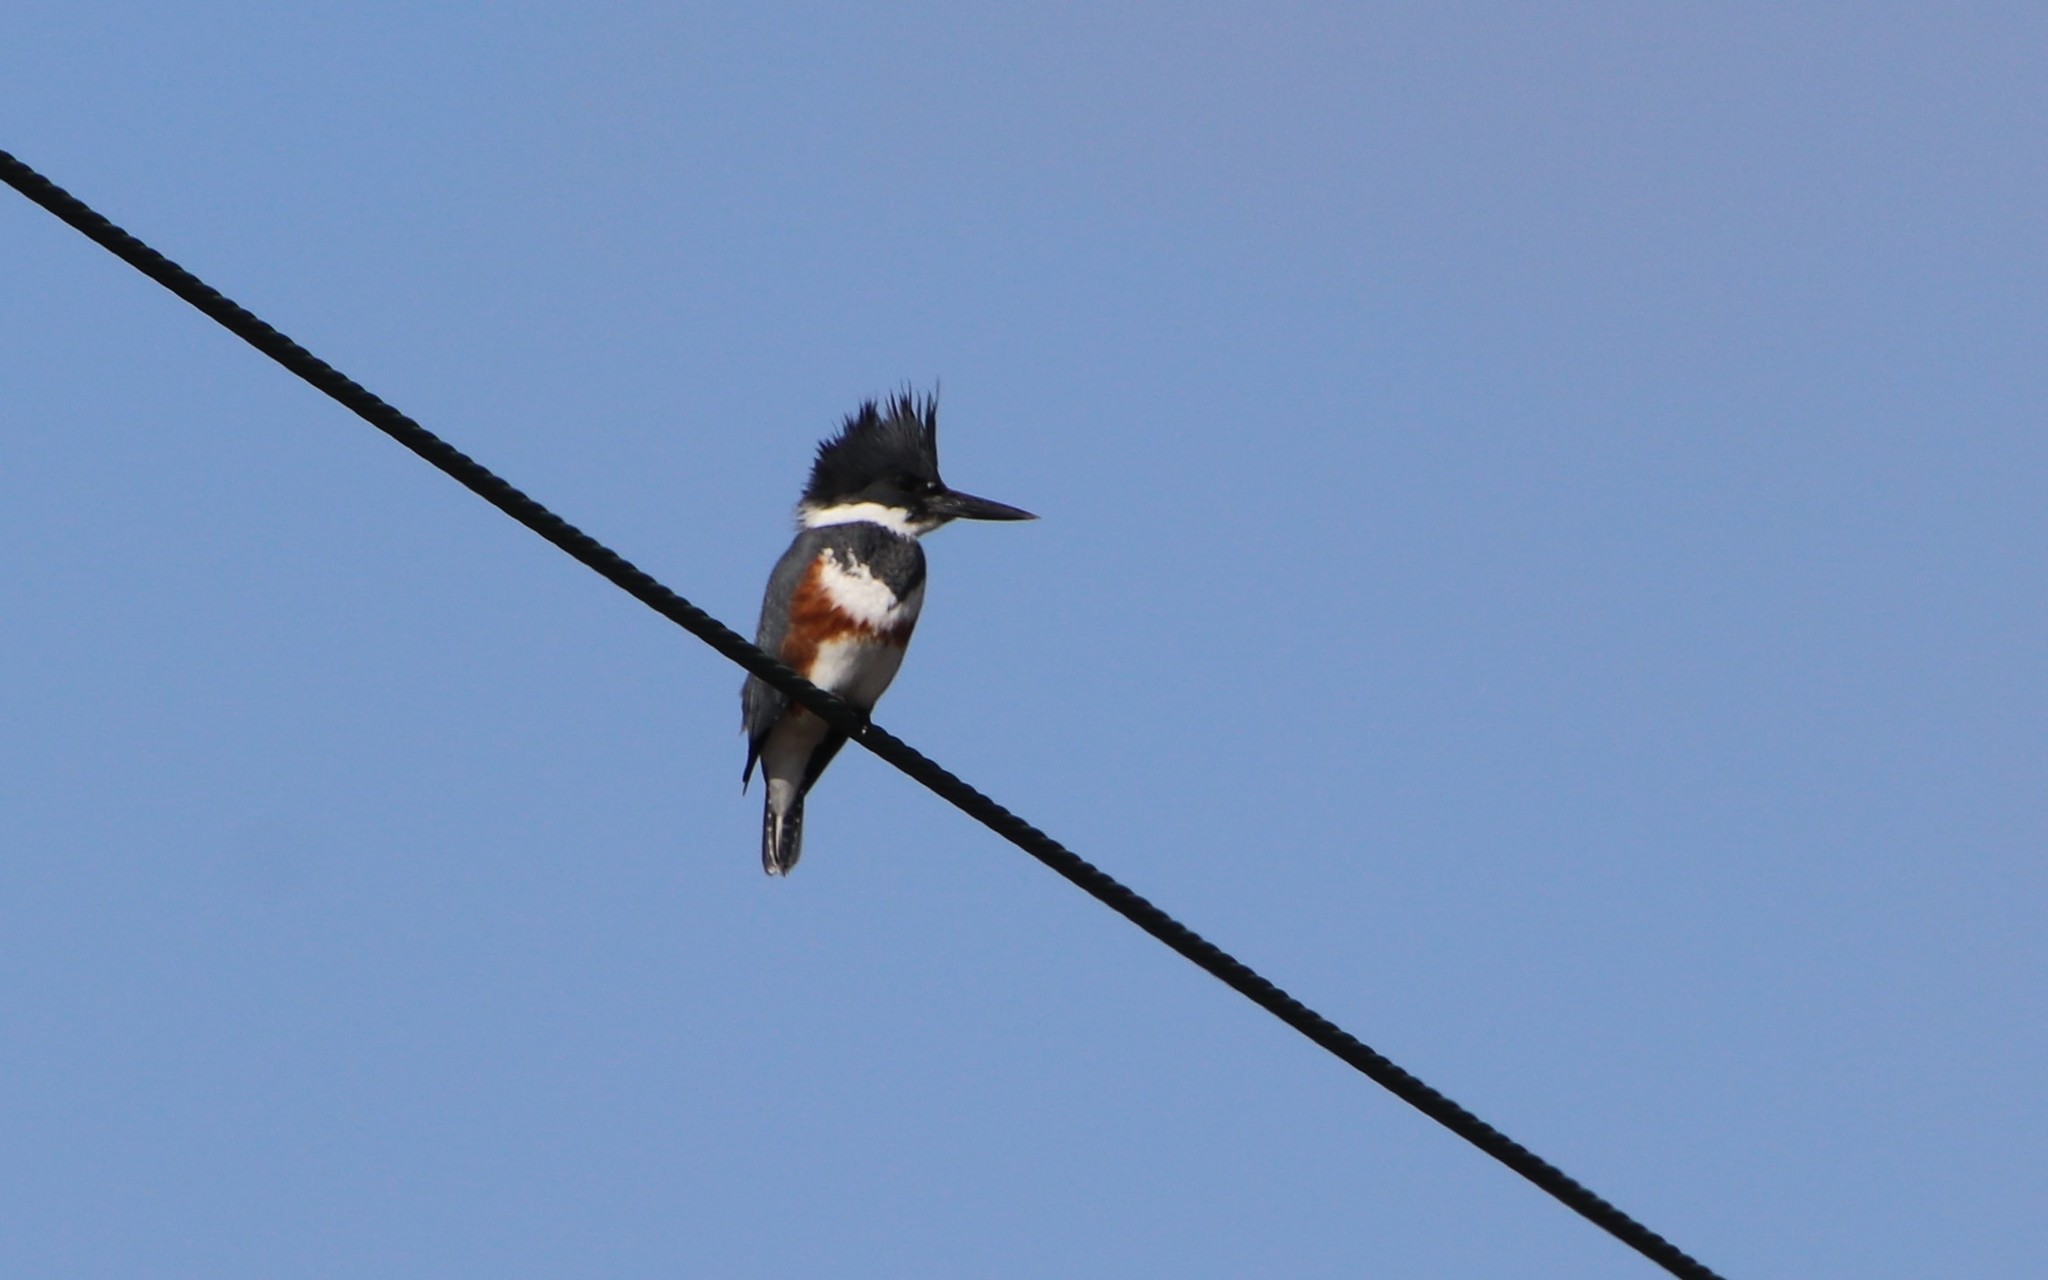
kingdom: Animalia
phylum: Chordata
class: Aves
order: Coraciiformes
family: Alcedinidae
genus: Megaceryle
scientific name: Megaceryle alcyon
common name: Belted kingfisher
